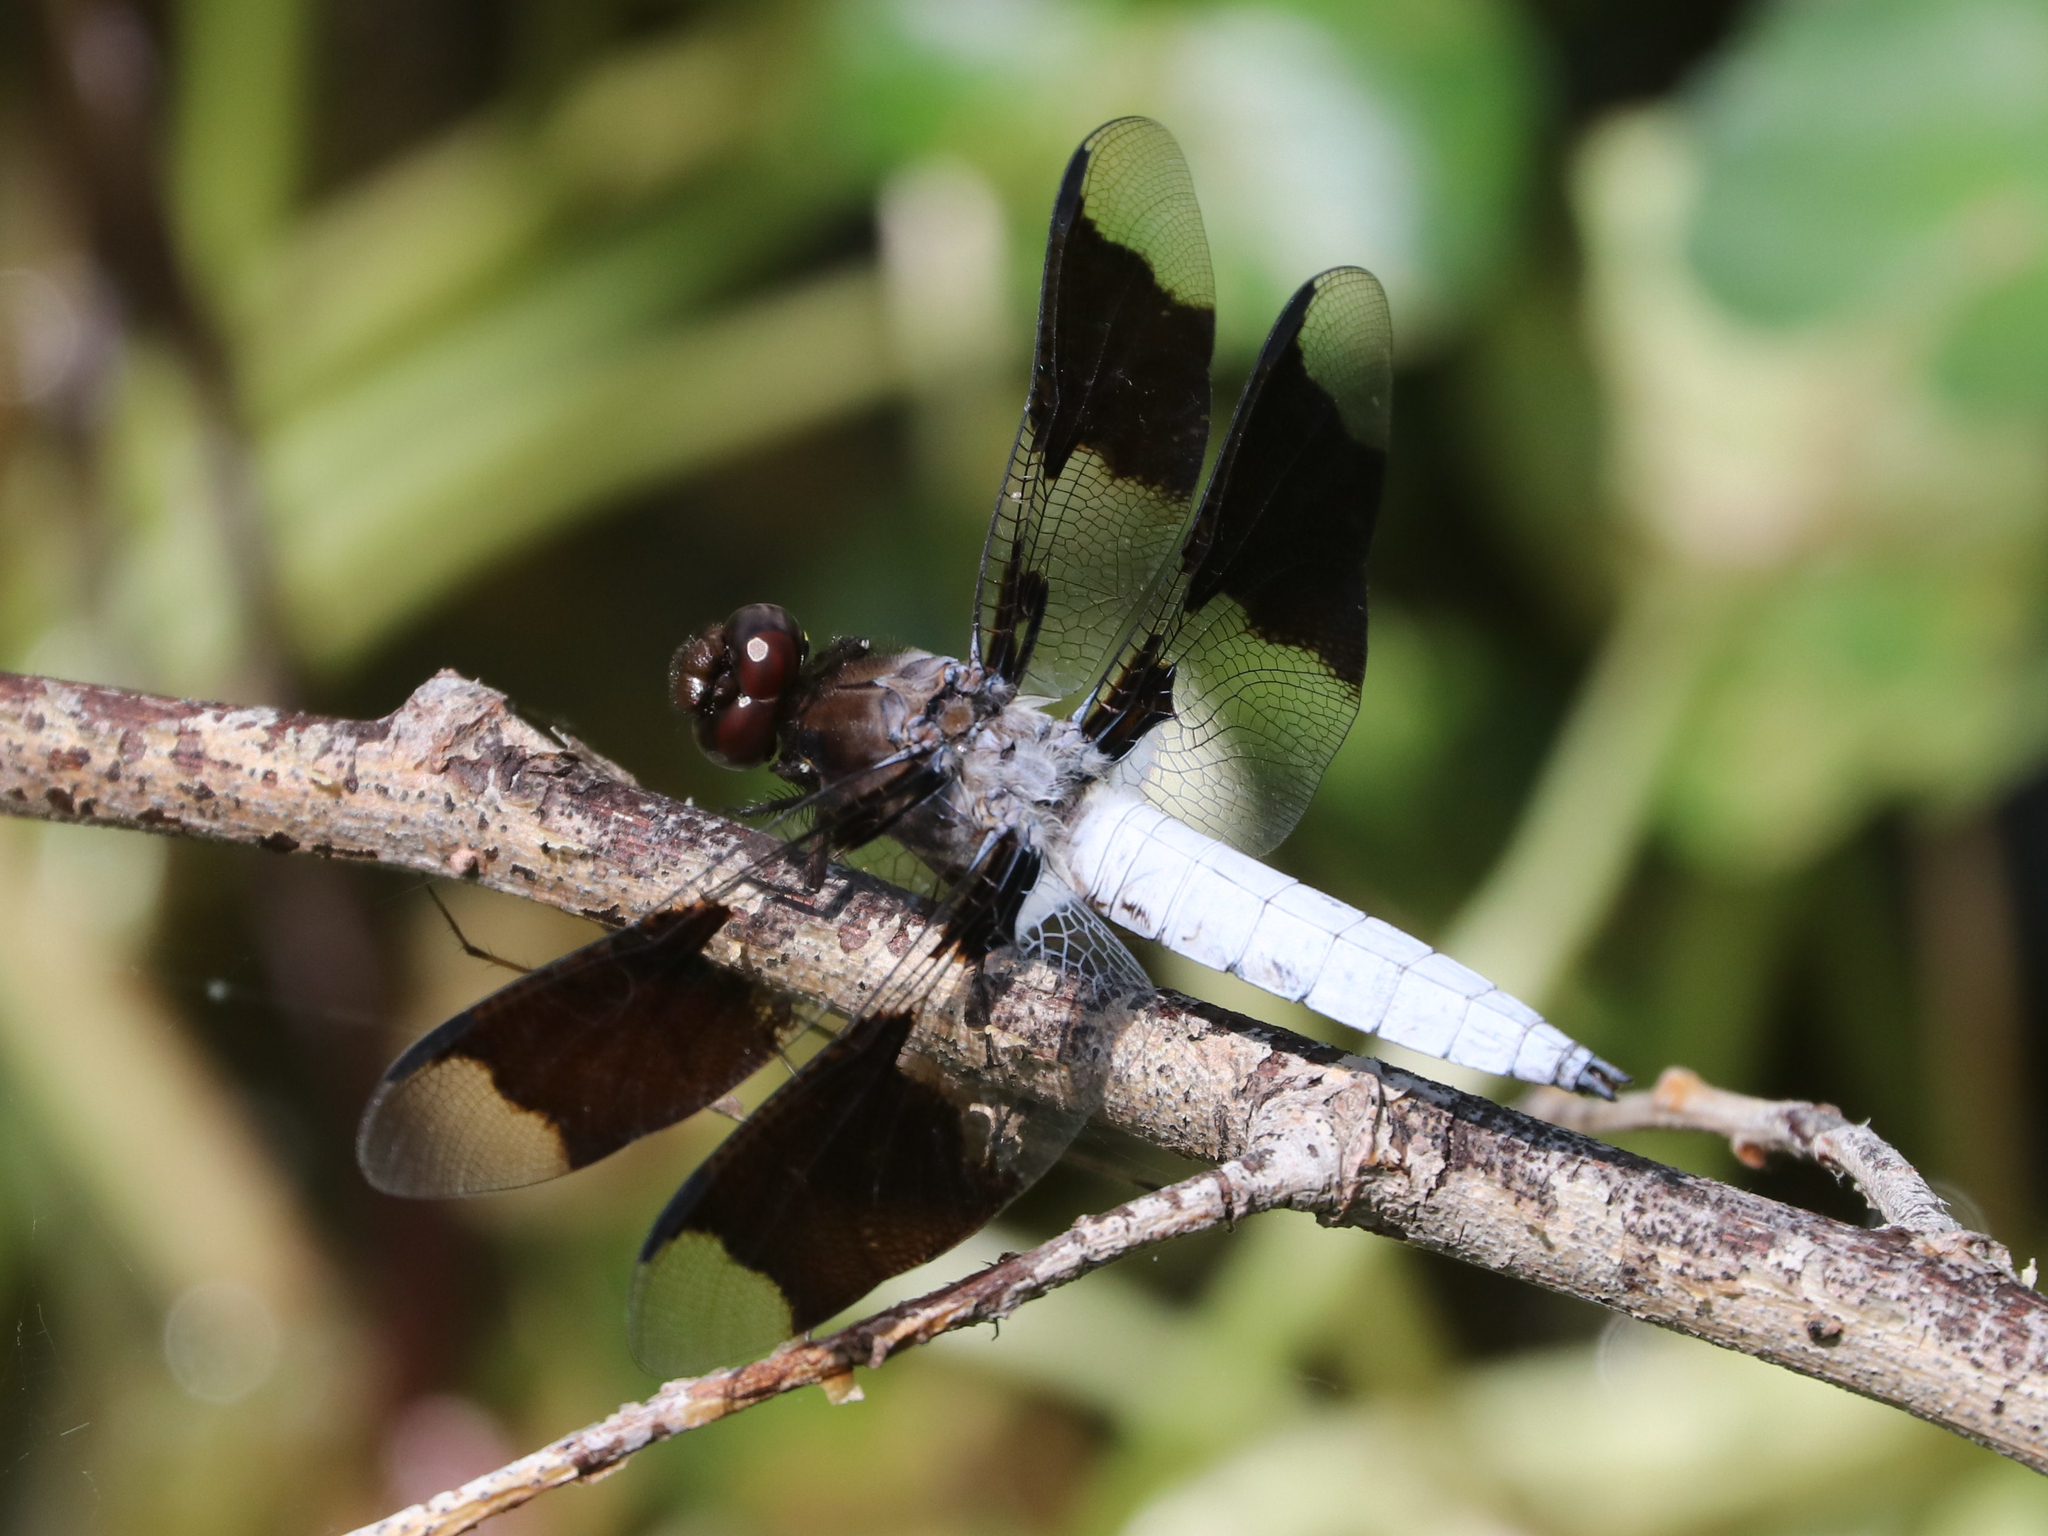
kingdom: Animalia
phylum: Arthropoda
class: Insecta
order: Odonata
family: Libellulidae
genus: Plathemis
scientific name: Plathemis lydia
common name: Common whitetail
